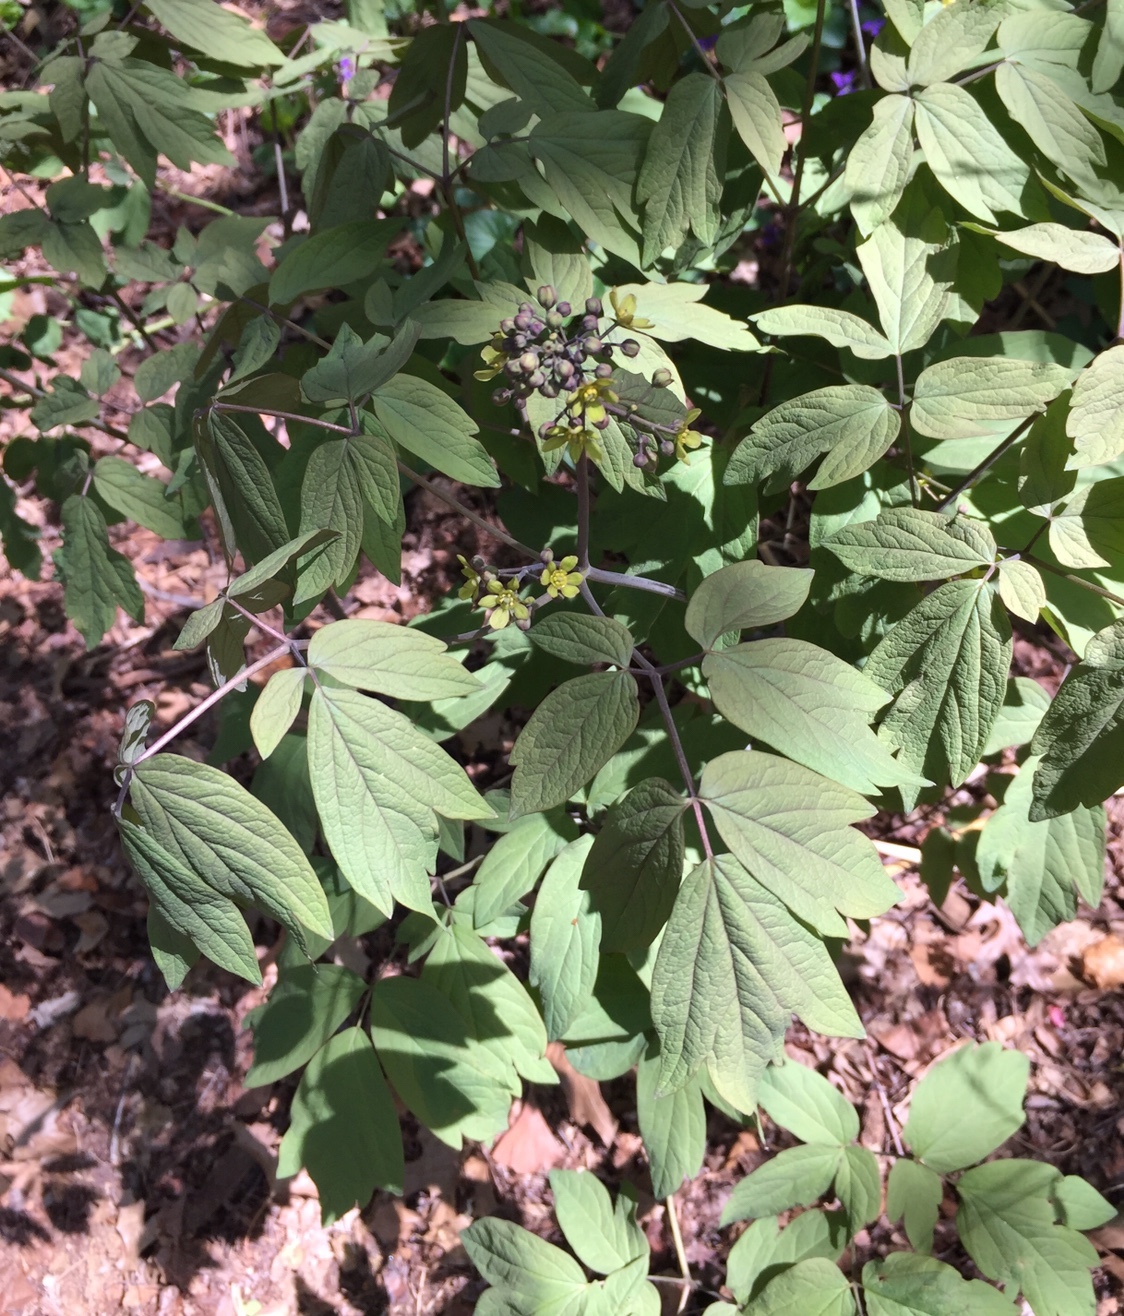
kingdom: Plantae
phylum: Tracheophyta
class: Magnoliopsida
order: Ranunculales
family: Berberidaceae
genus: Caulophyllum
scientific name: Caulophyllum thalictroides
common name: Blue cohosh
